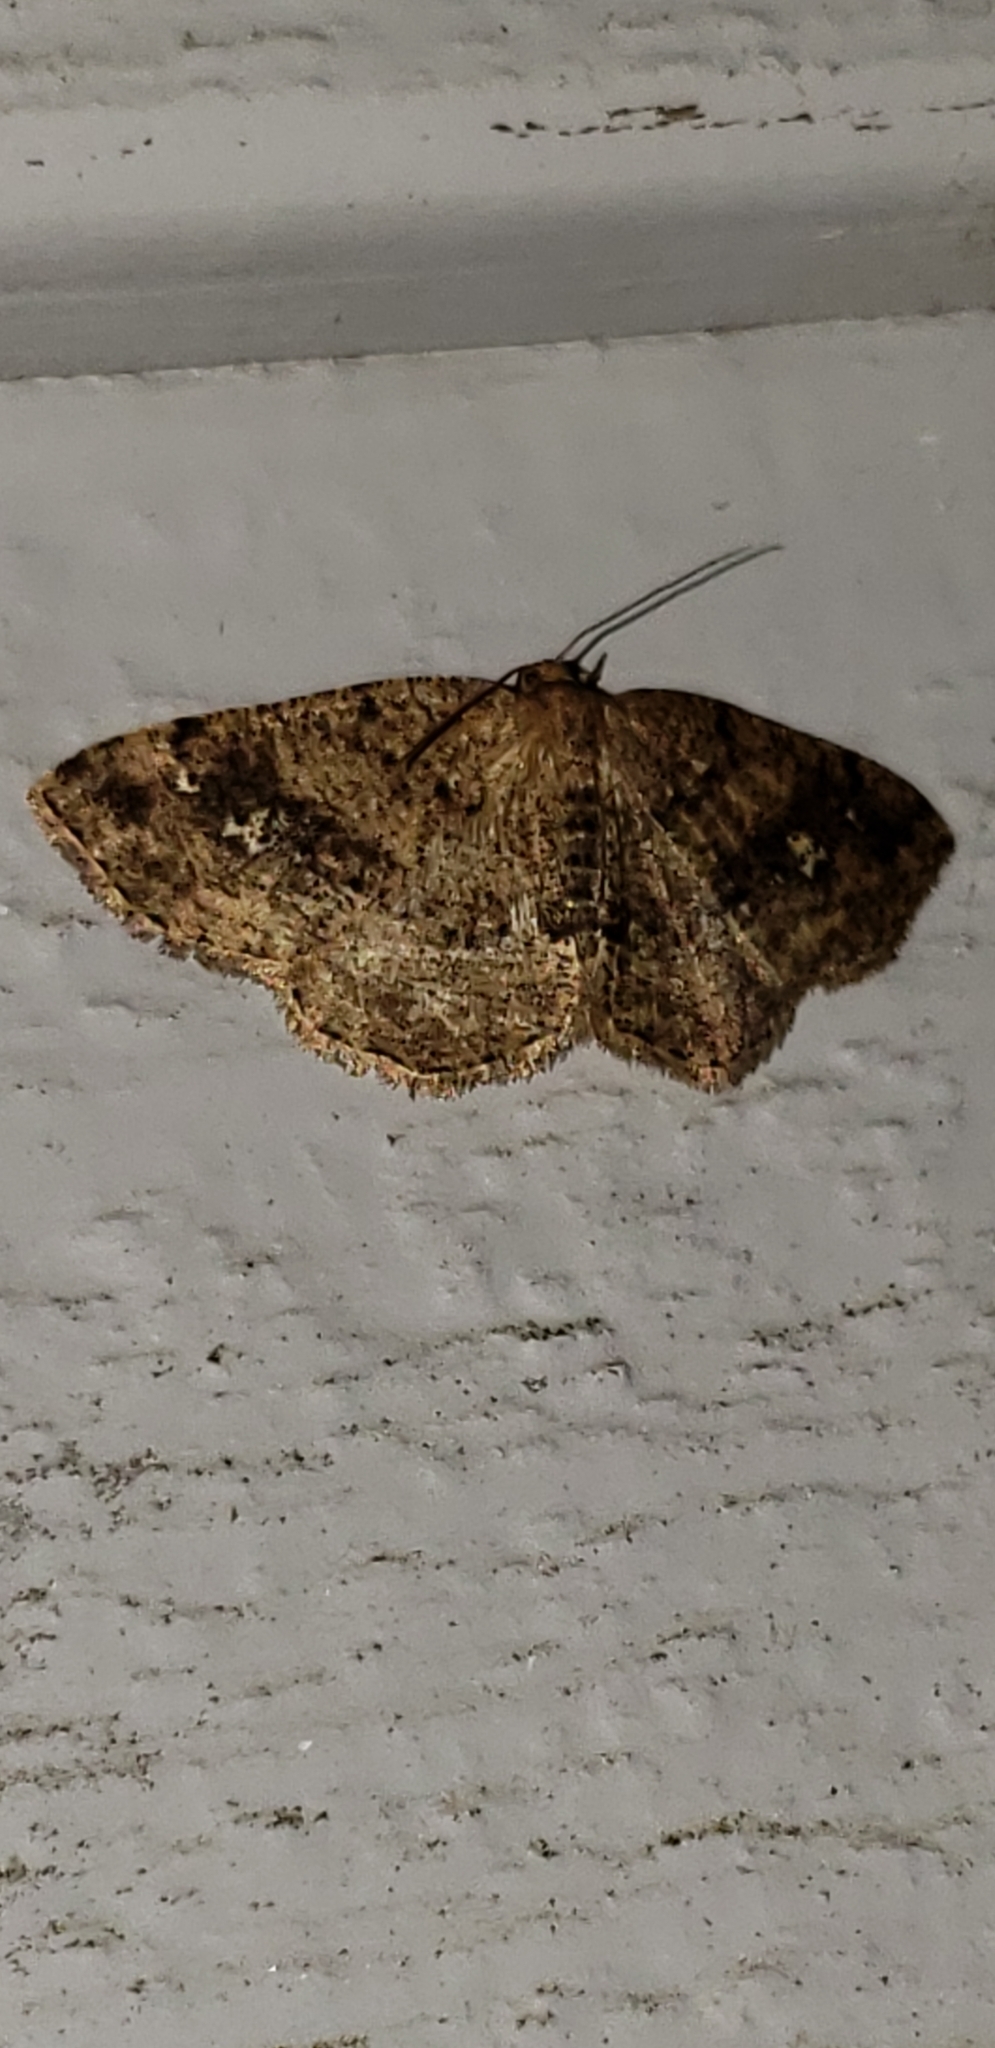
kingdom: Animalia
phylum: Arthropoda
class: Insecta
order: Lepidoptera
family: Geometridae
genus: Homochlodes
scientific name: Homochlodes fritillaria
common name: Pale homochlodes
